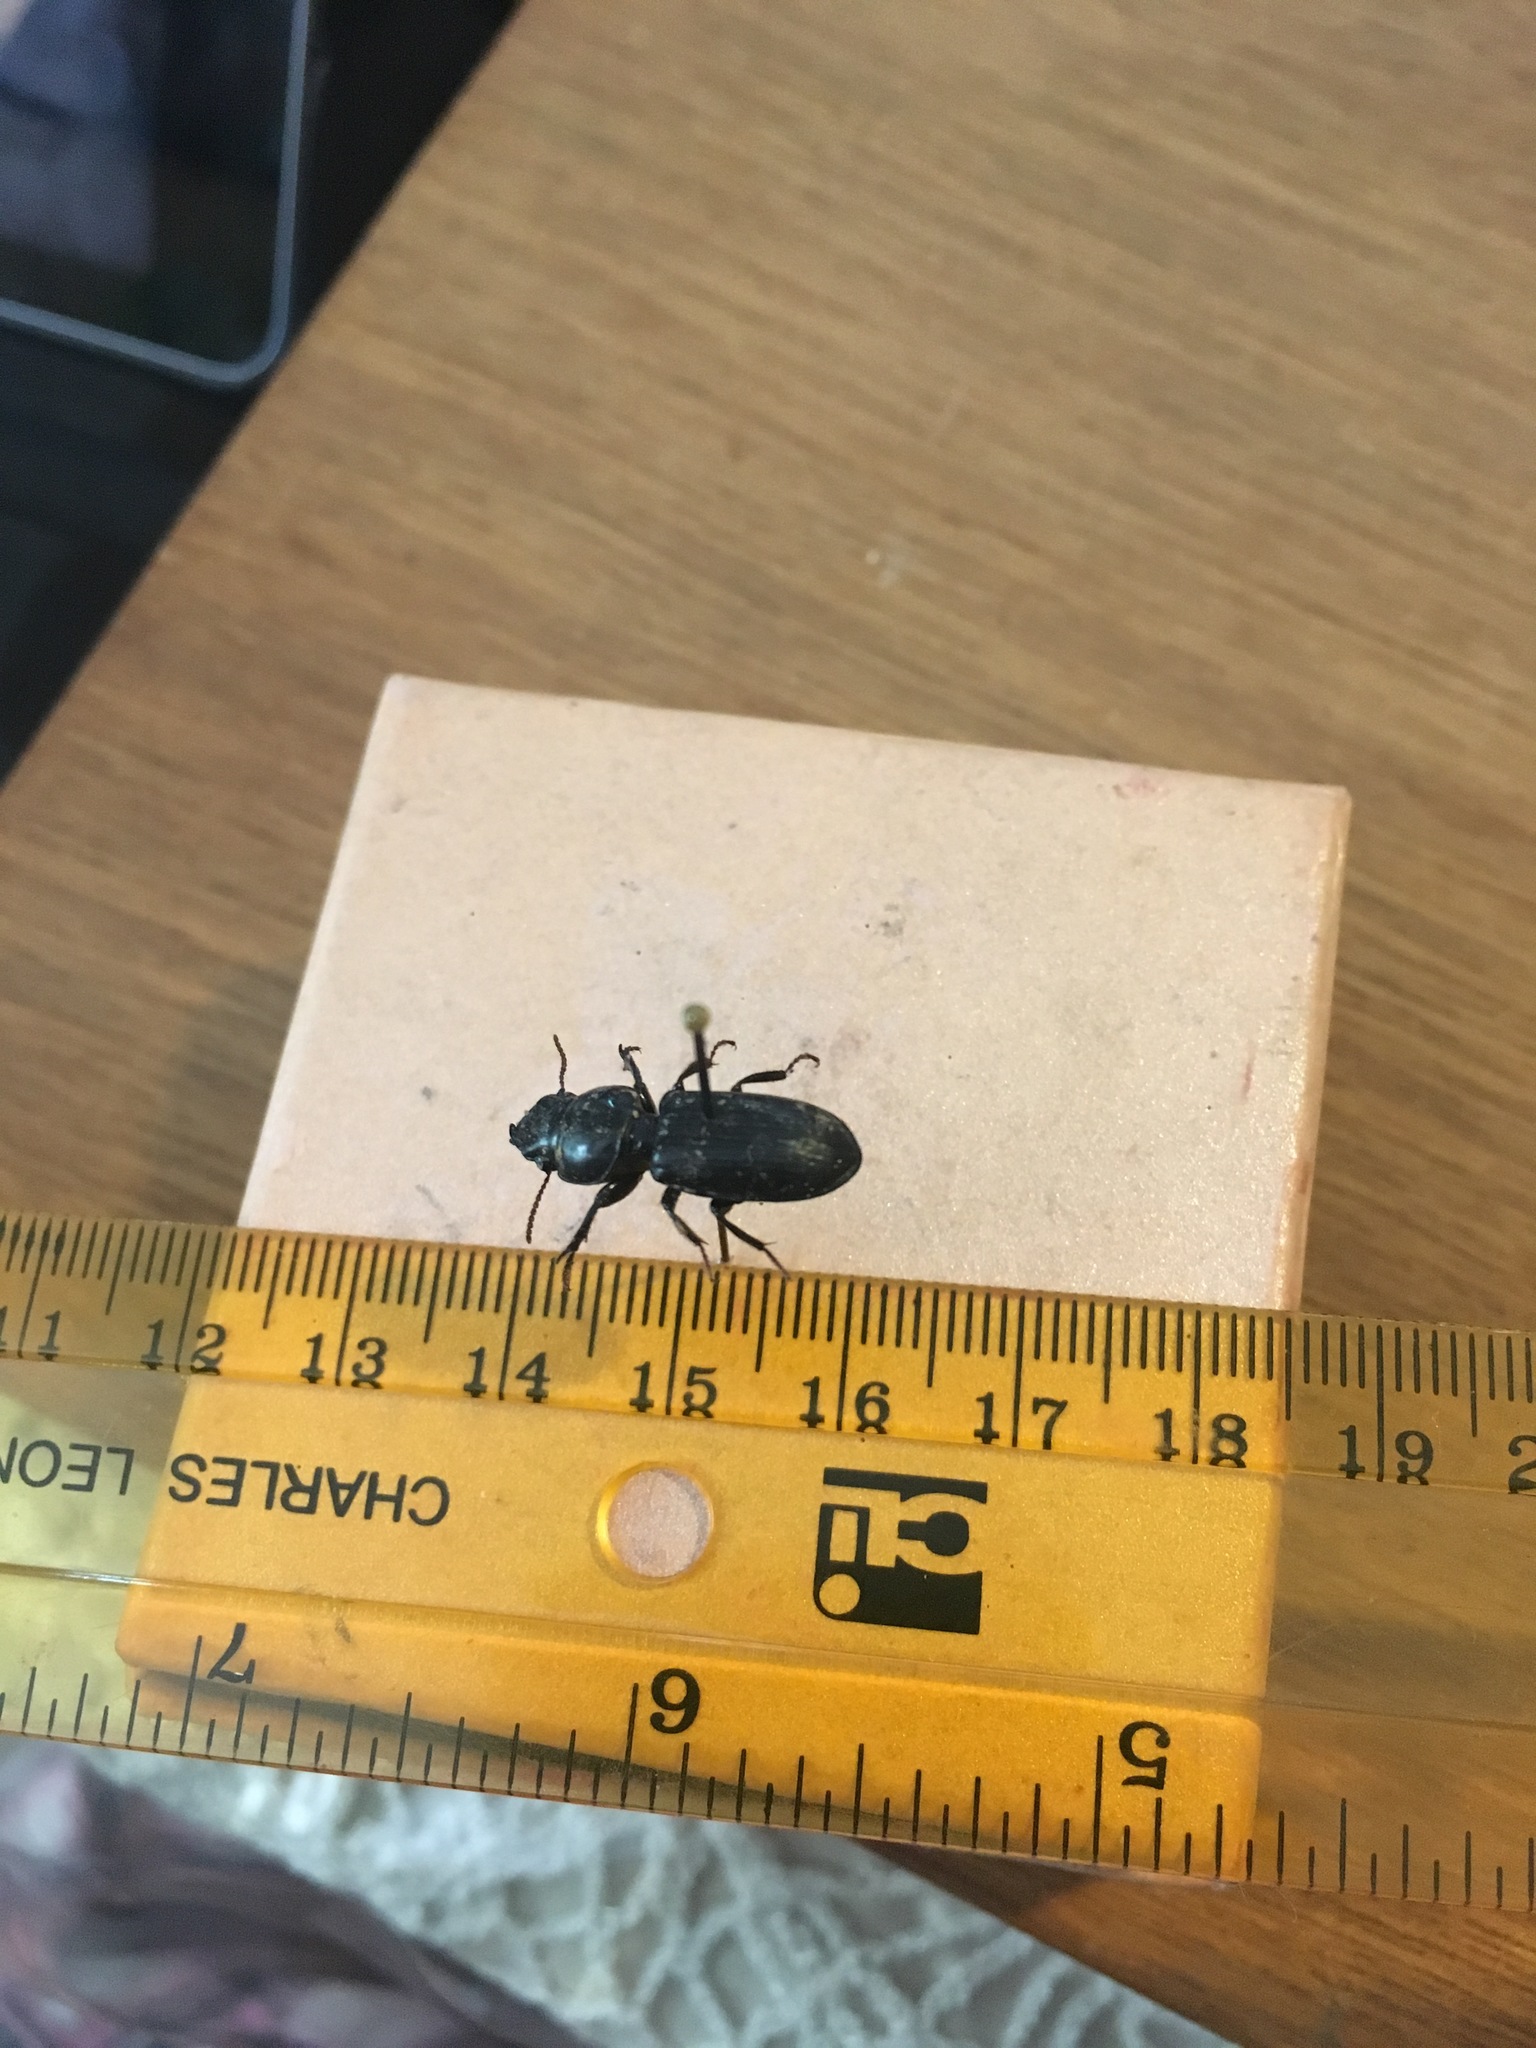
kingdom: Animalia
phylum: Arthropoda
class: Insecta
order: Coleoptera
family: Carabidae
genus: Scarites
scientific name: Scarites subterraneus
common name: Big-headed ground beetle
